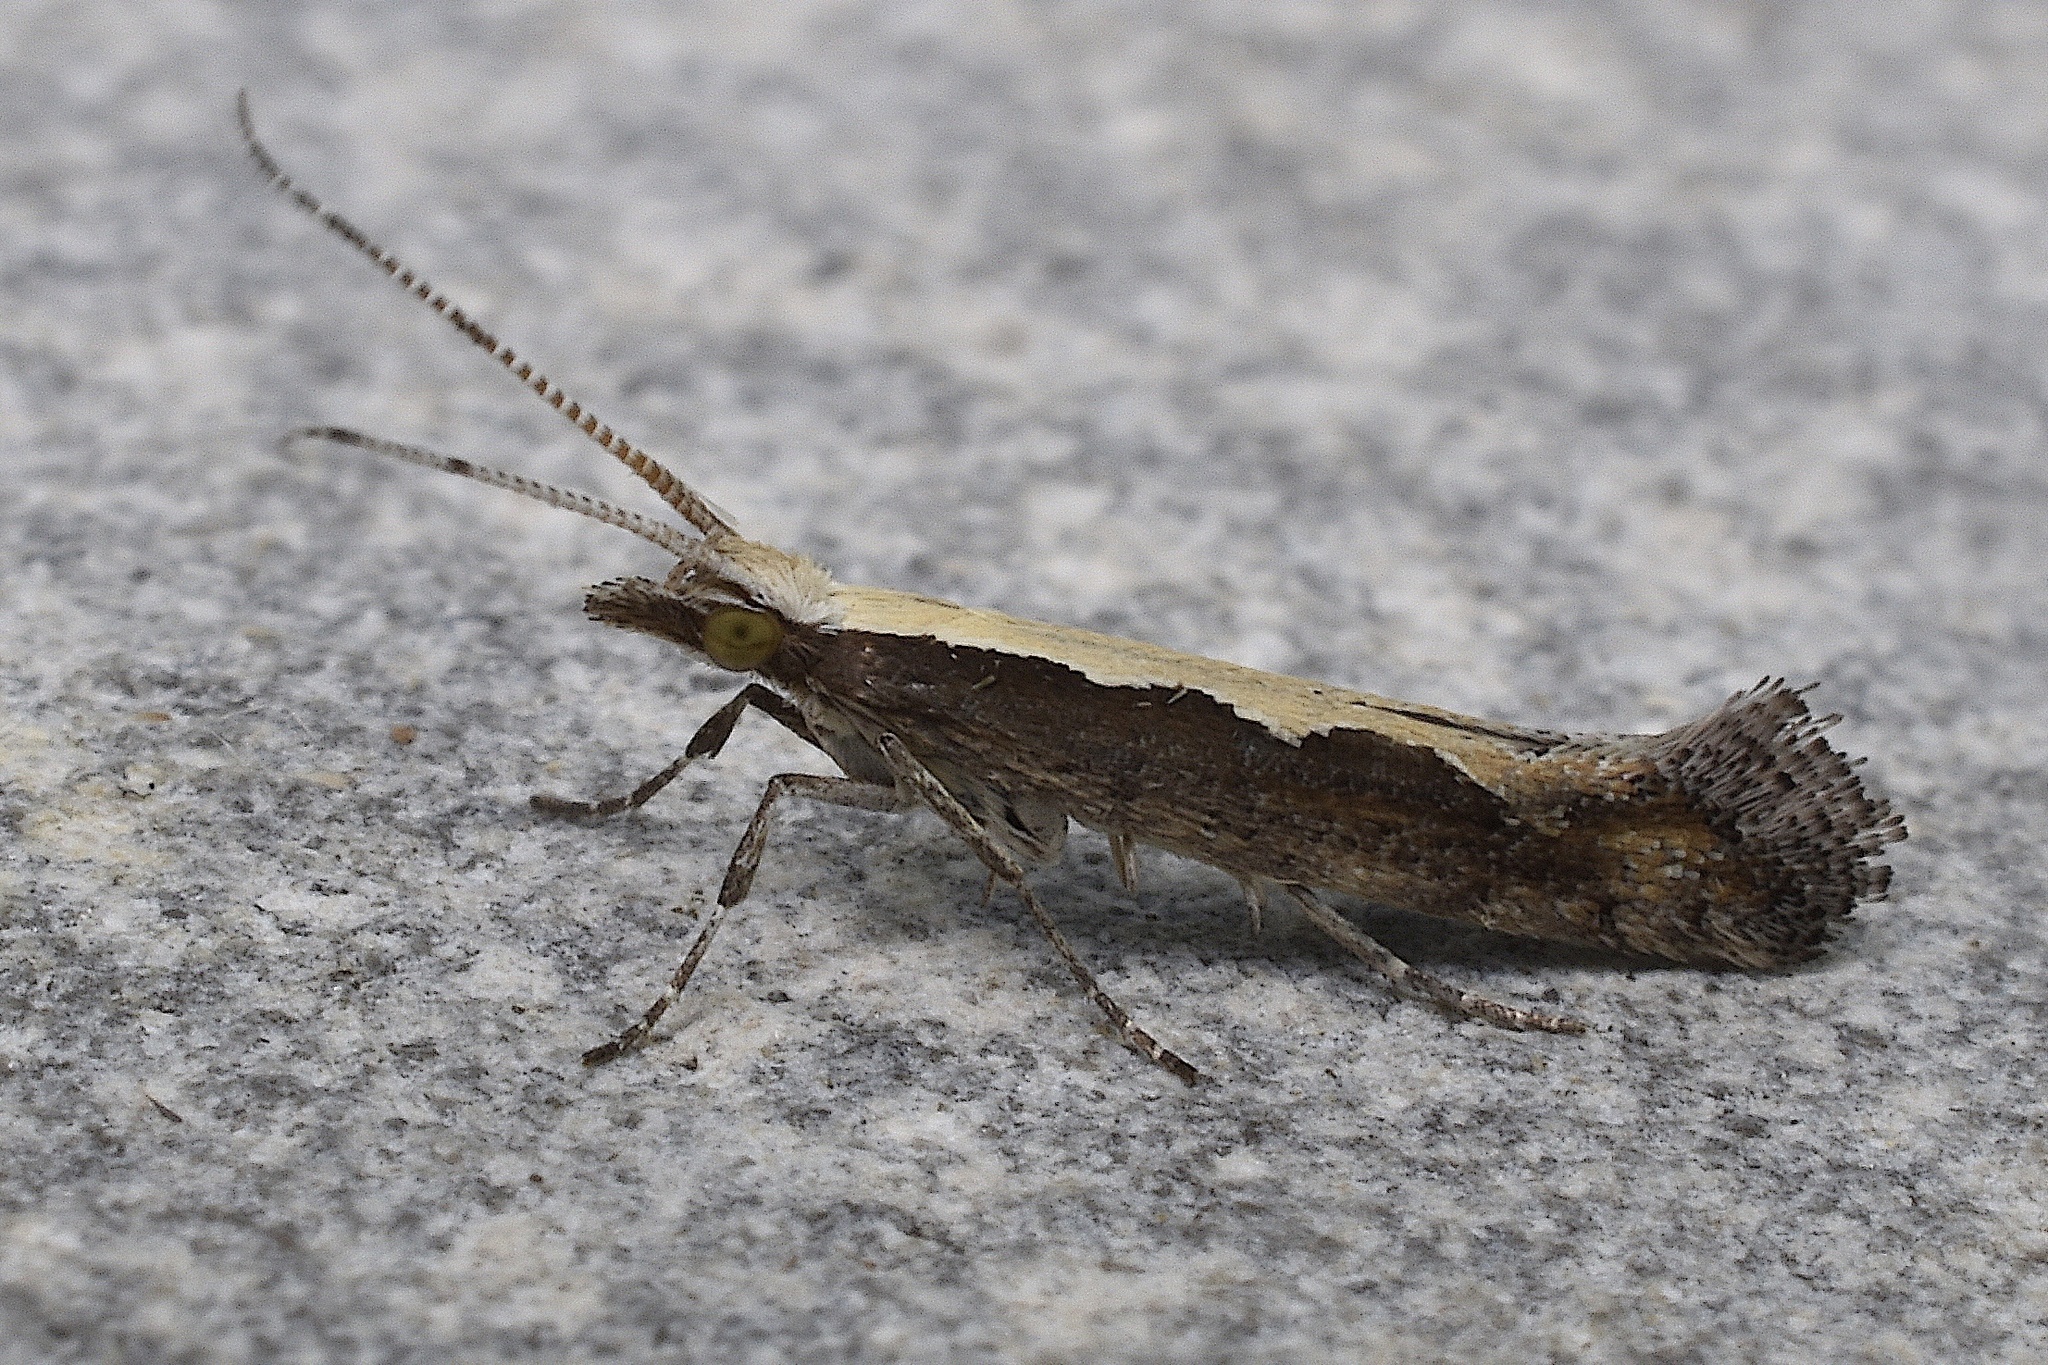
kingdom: Animalia
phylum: Arthropoda
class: Insecta
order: Lepidoptera
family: Plutellidae
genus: Plutella
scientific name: Plutella xylostella
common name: Diamond-back moth
